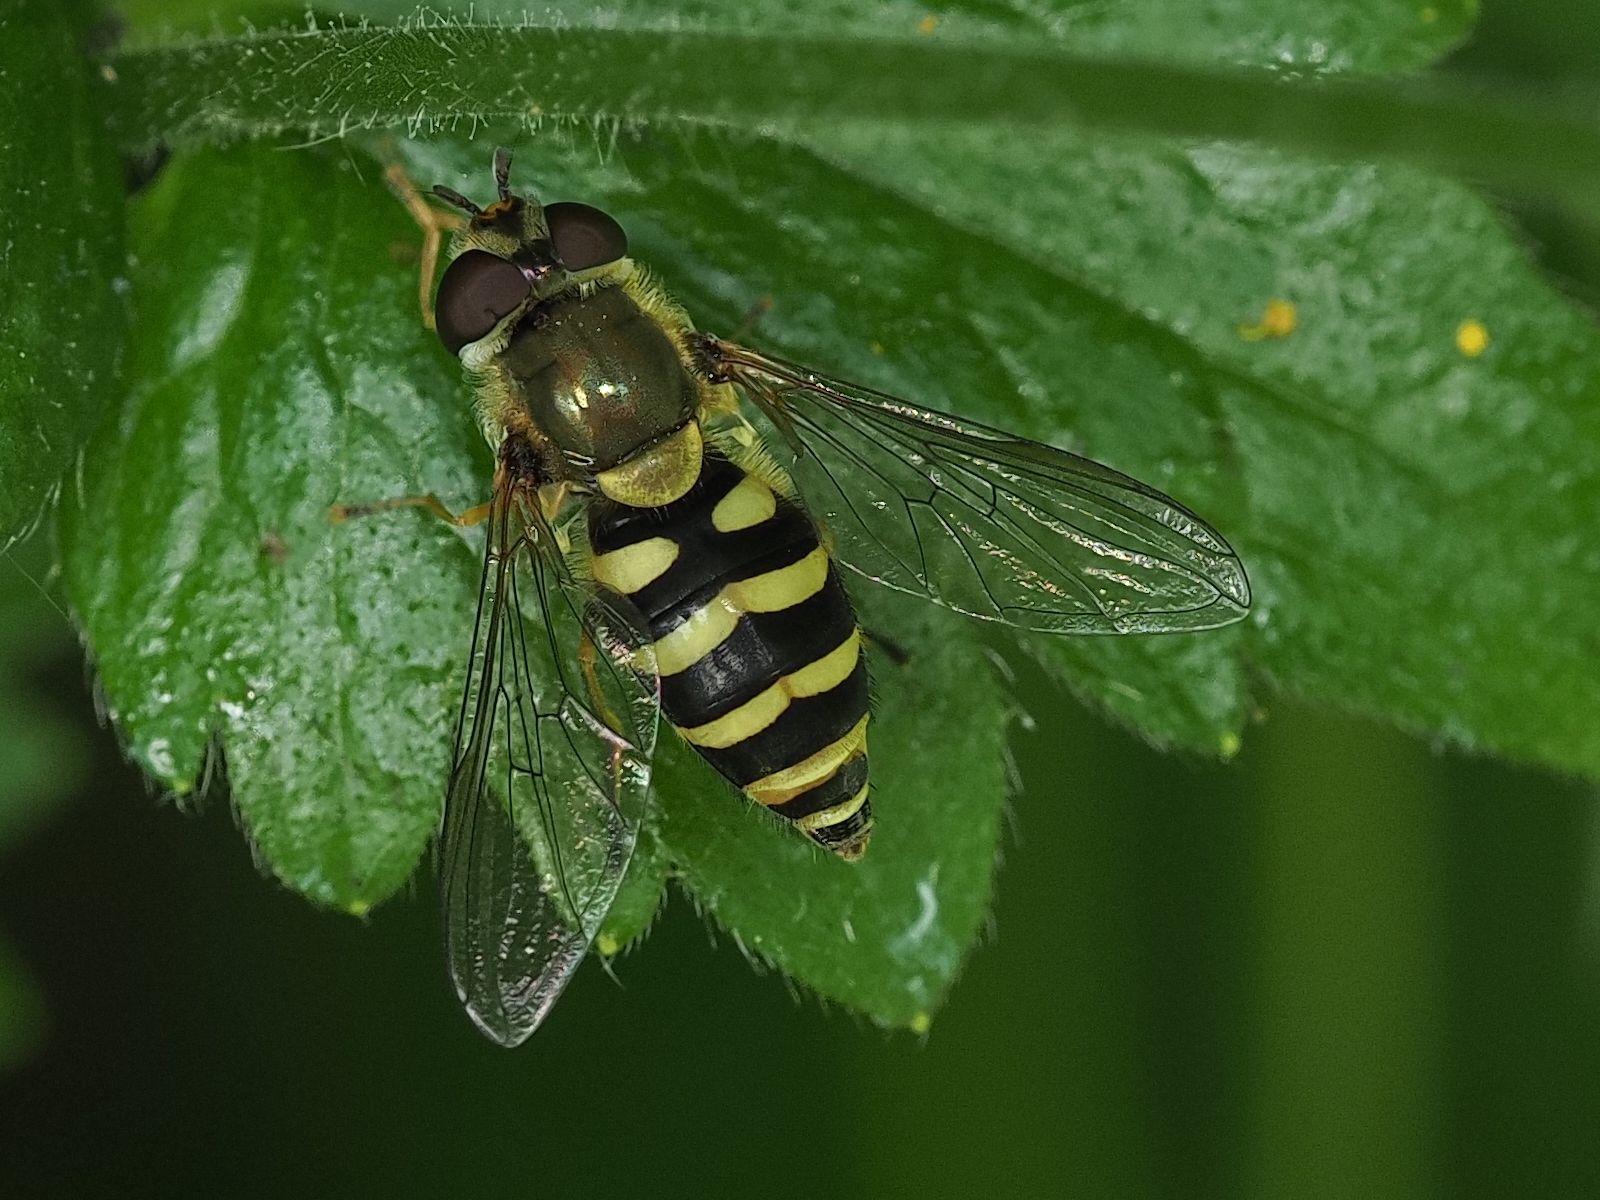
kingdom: Animalia
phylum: Arthropoda
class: Insecta
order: Diptera
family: Syrphidae
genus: Syrphus
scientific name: Syrphus
